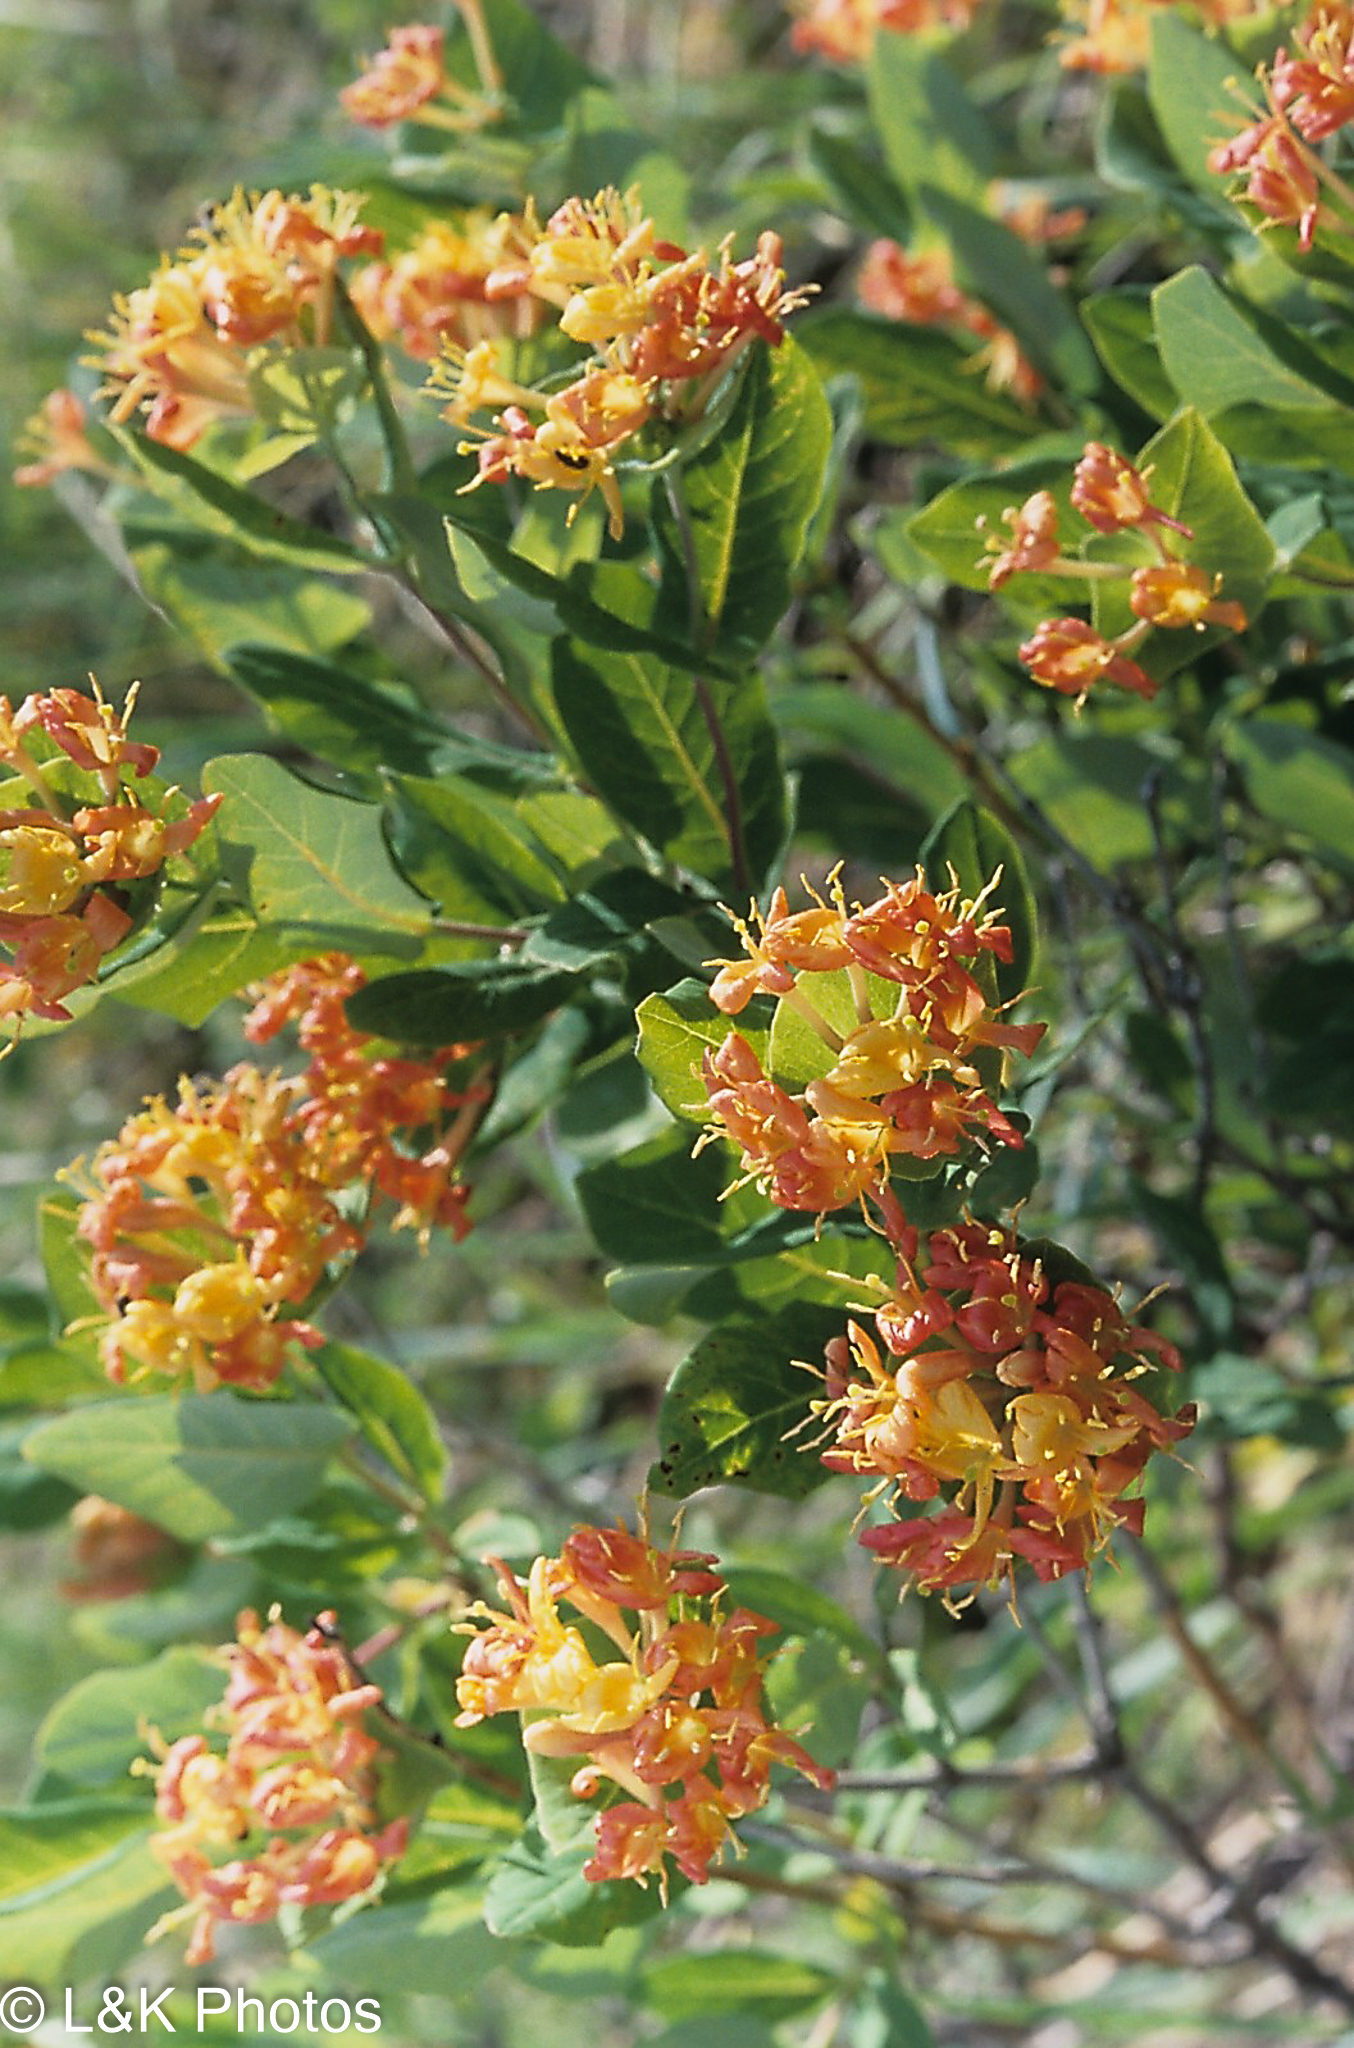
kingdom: Plantae
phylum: Tracheophyta
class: Magnoliopsida
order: Dipsacales
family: Caprifoliaceae
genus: Lonicera
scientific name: Lonicera dioica
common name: Limber honeysuckle
